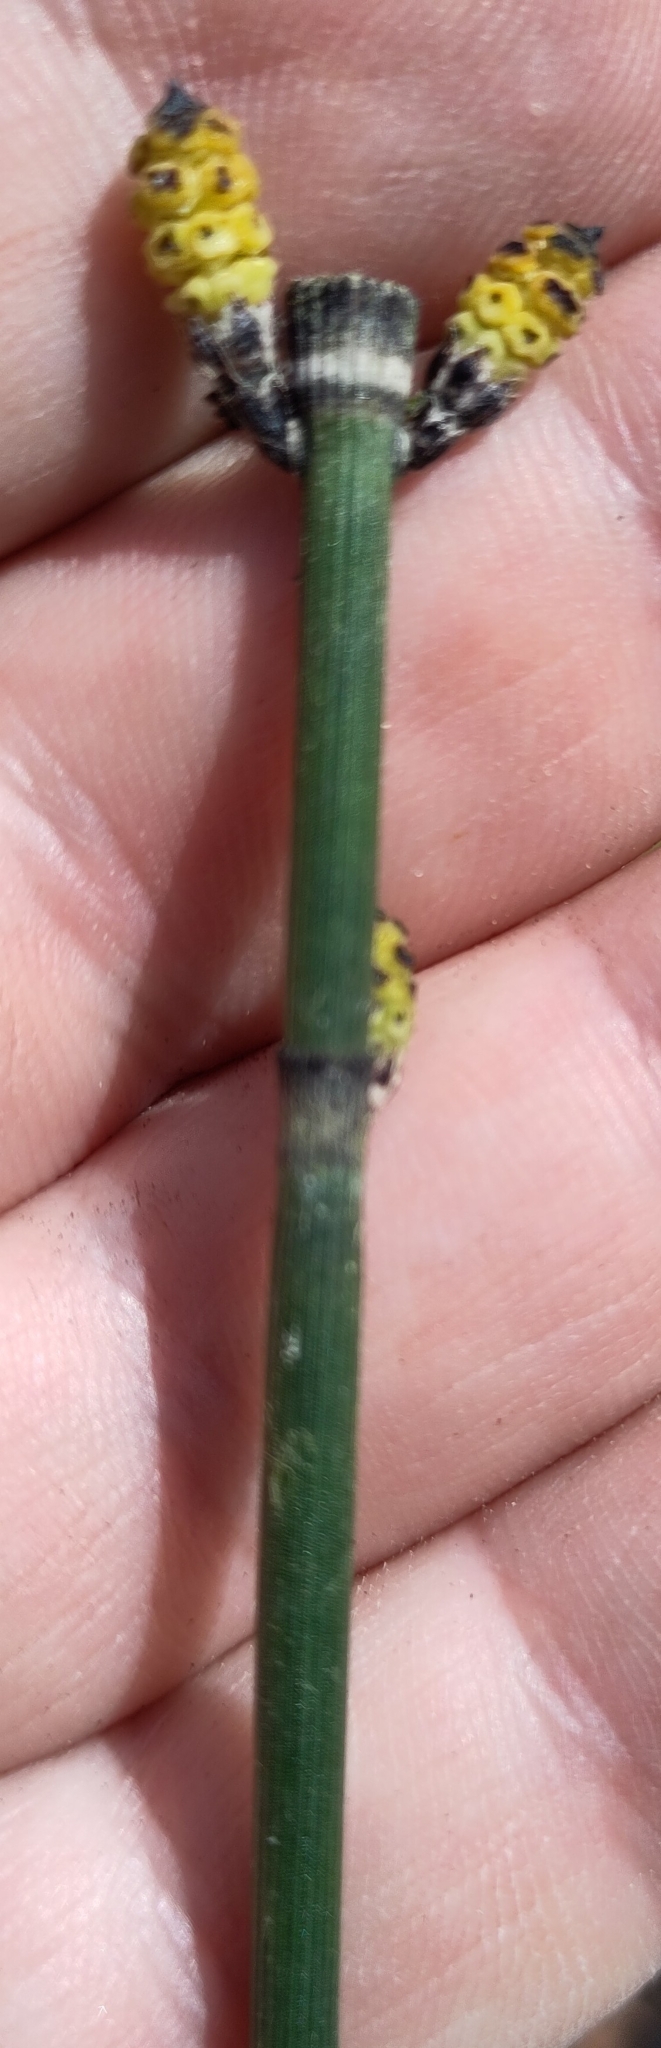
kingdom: Plantae
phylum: Tracheophyta
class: Polypodiopsida
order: Equisetales
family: Equisetaceae
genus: Equisetum
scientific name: Equisetum hyemale
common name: Rough horsetail
